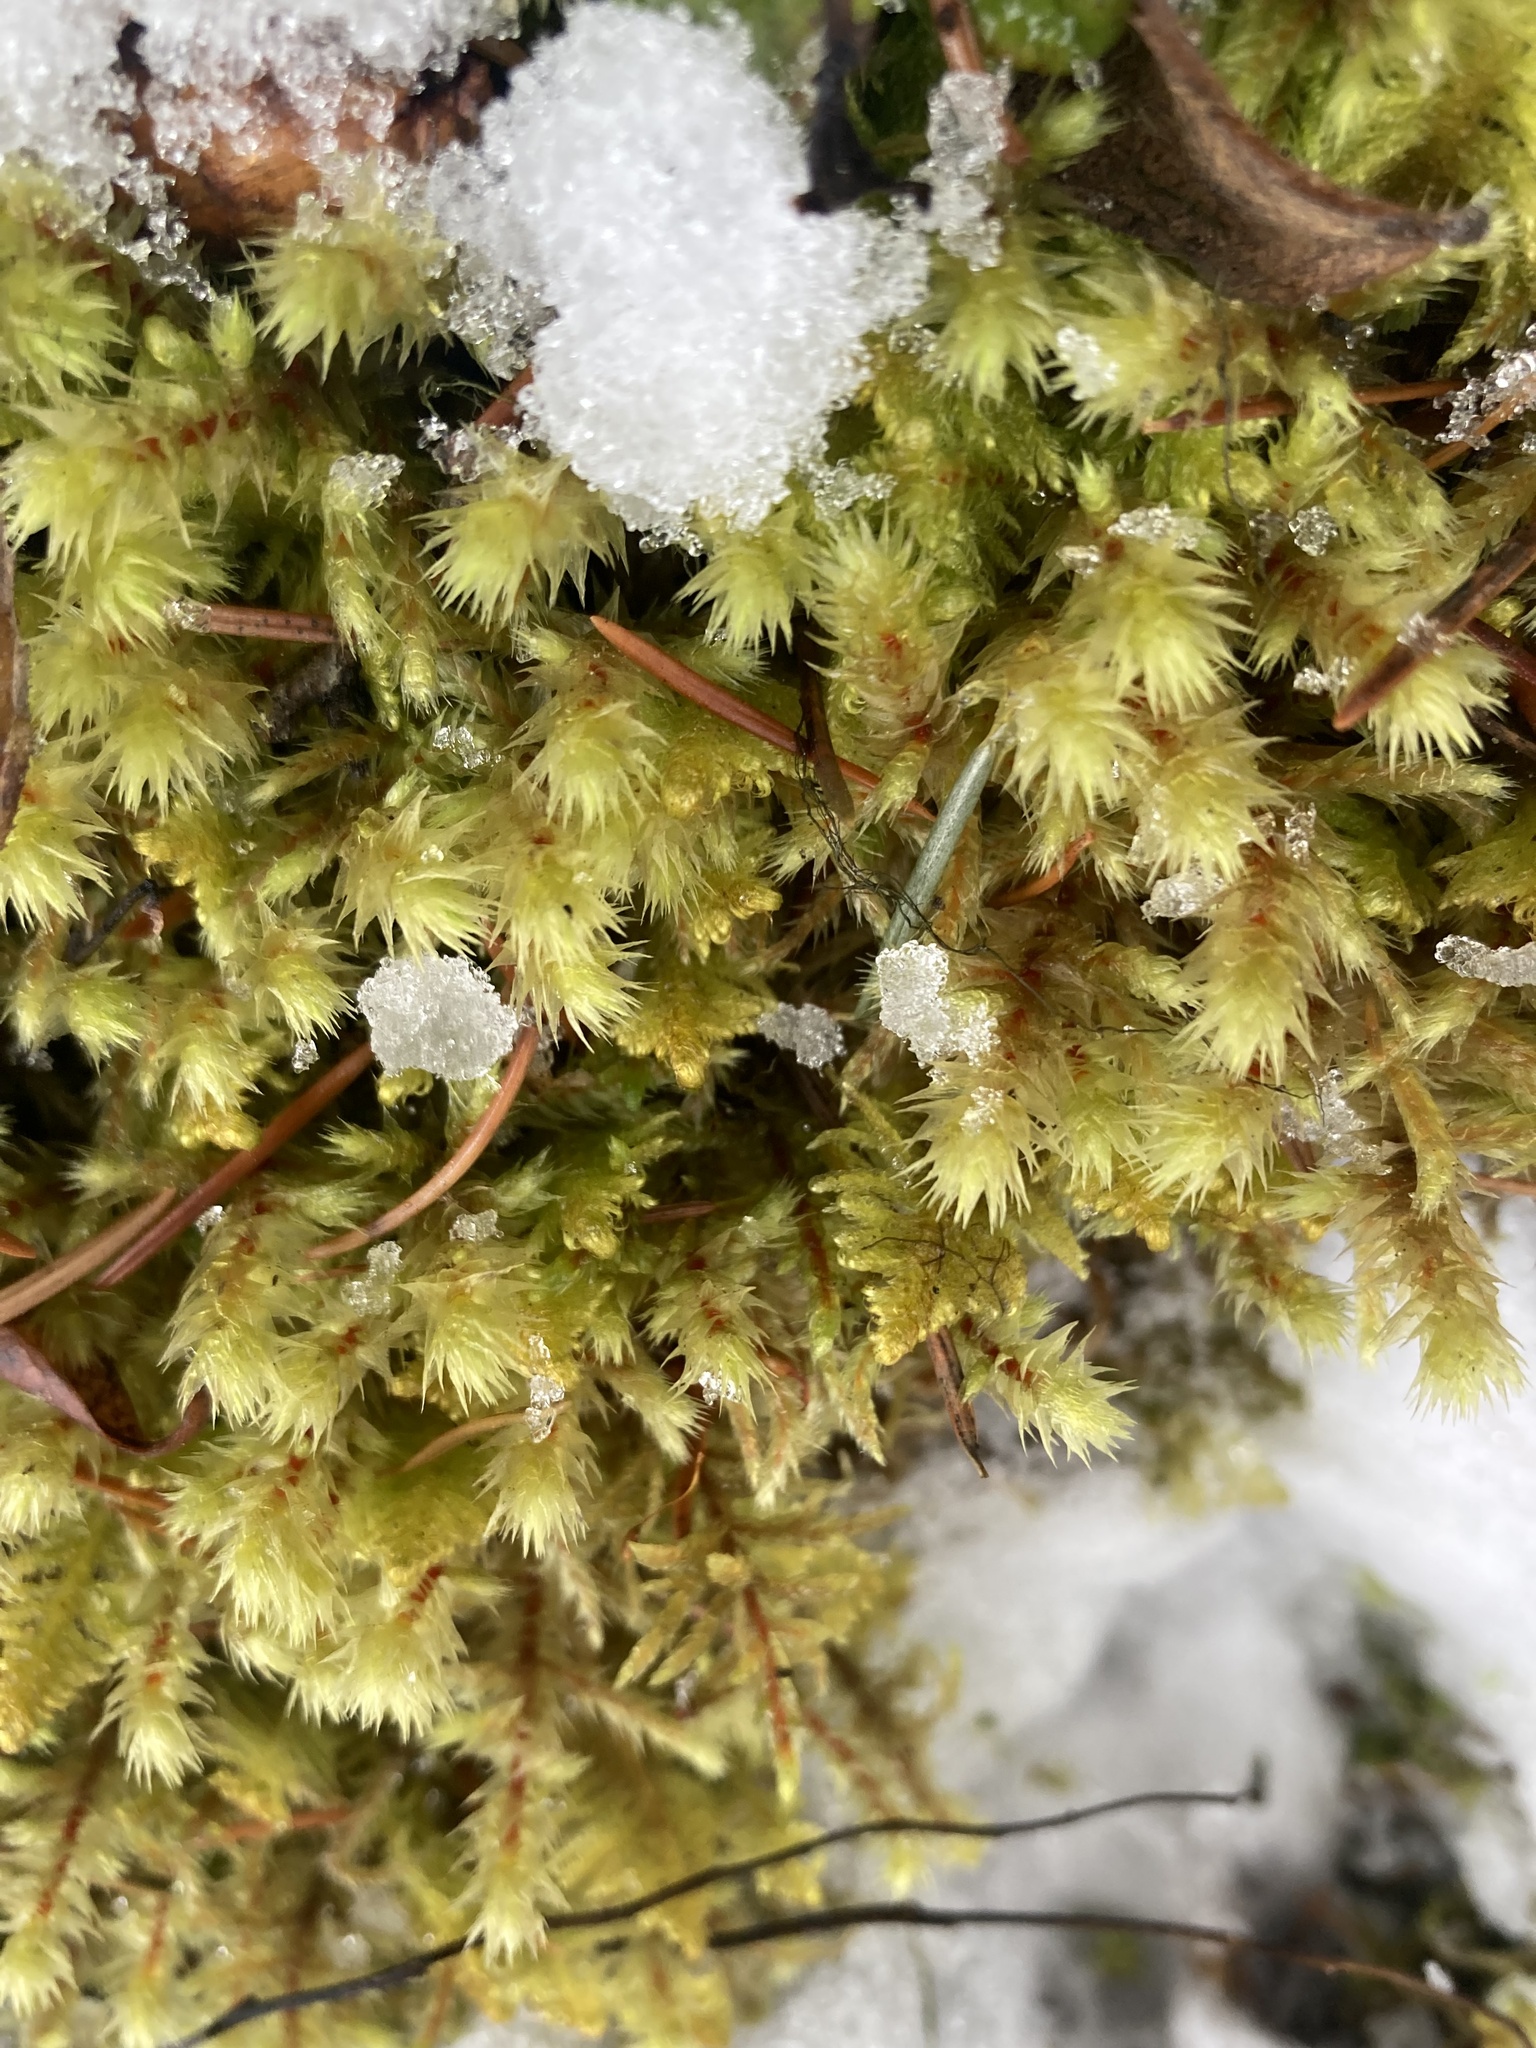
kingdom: Plantae
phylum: Bryophyta
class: Bryopsida
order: Hypnales
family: Hylocomiaceae
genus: Hylocomiadelphus
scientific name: Hylocomiadelphus triquetrus
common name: Rough goose neck moss
